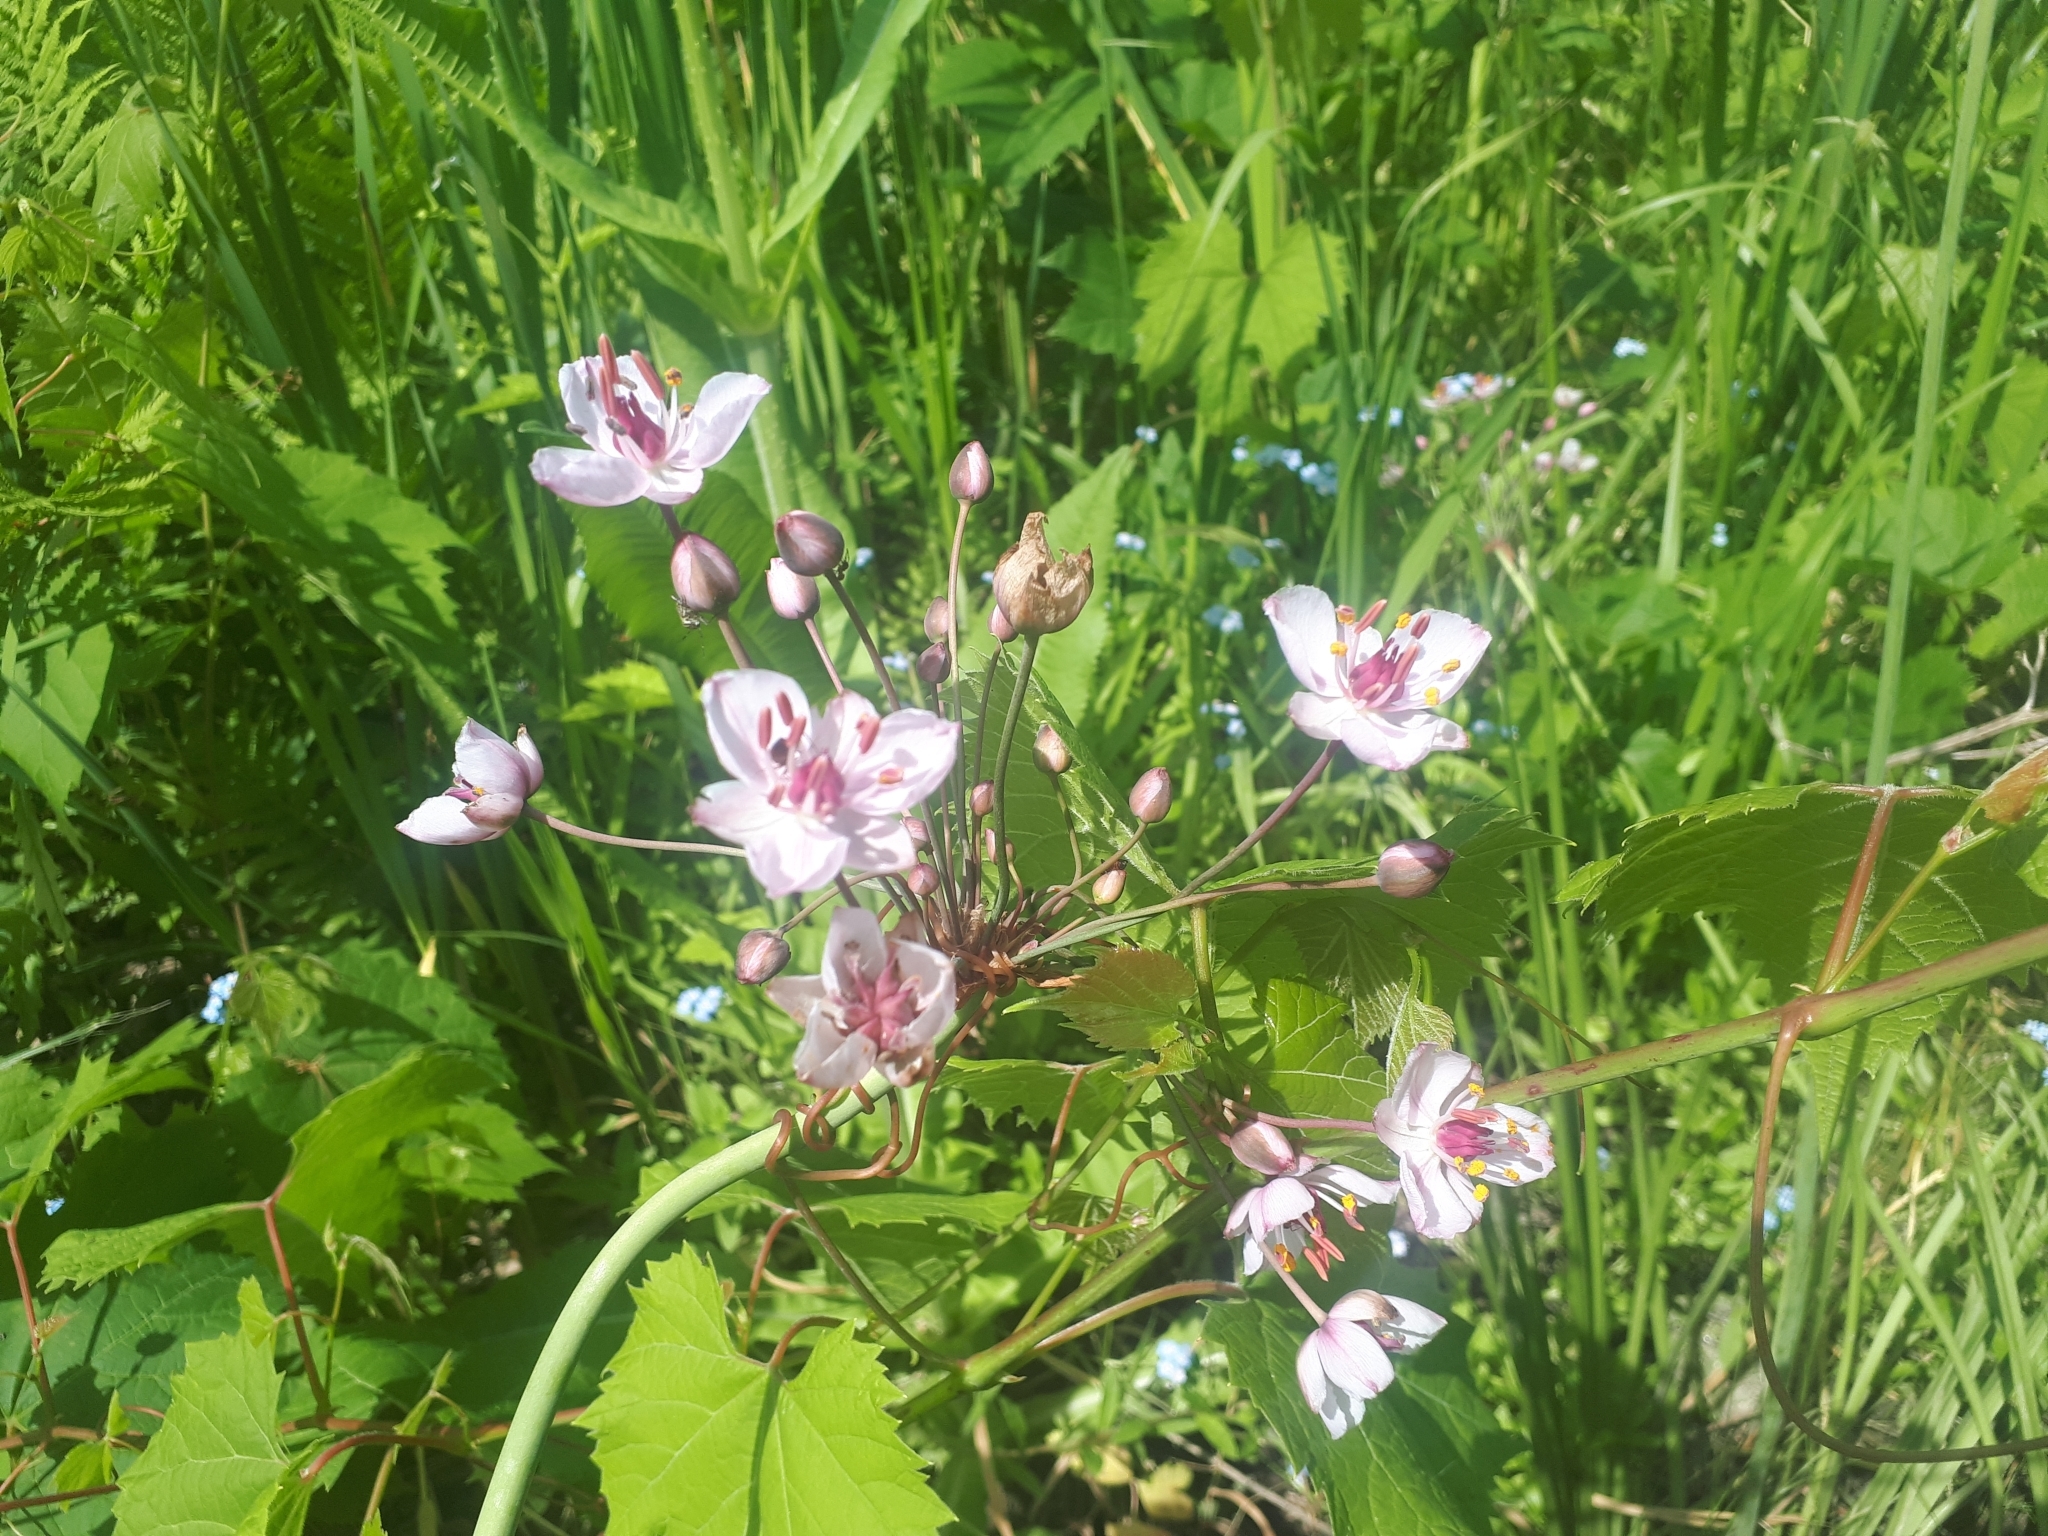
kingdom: Plantae
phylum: Tracheophyta
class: Liliopsida
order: Alismatales
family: Butomaceae
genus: Butomus
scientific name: Butomus umbellatus
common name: Flowering-rush
